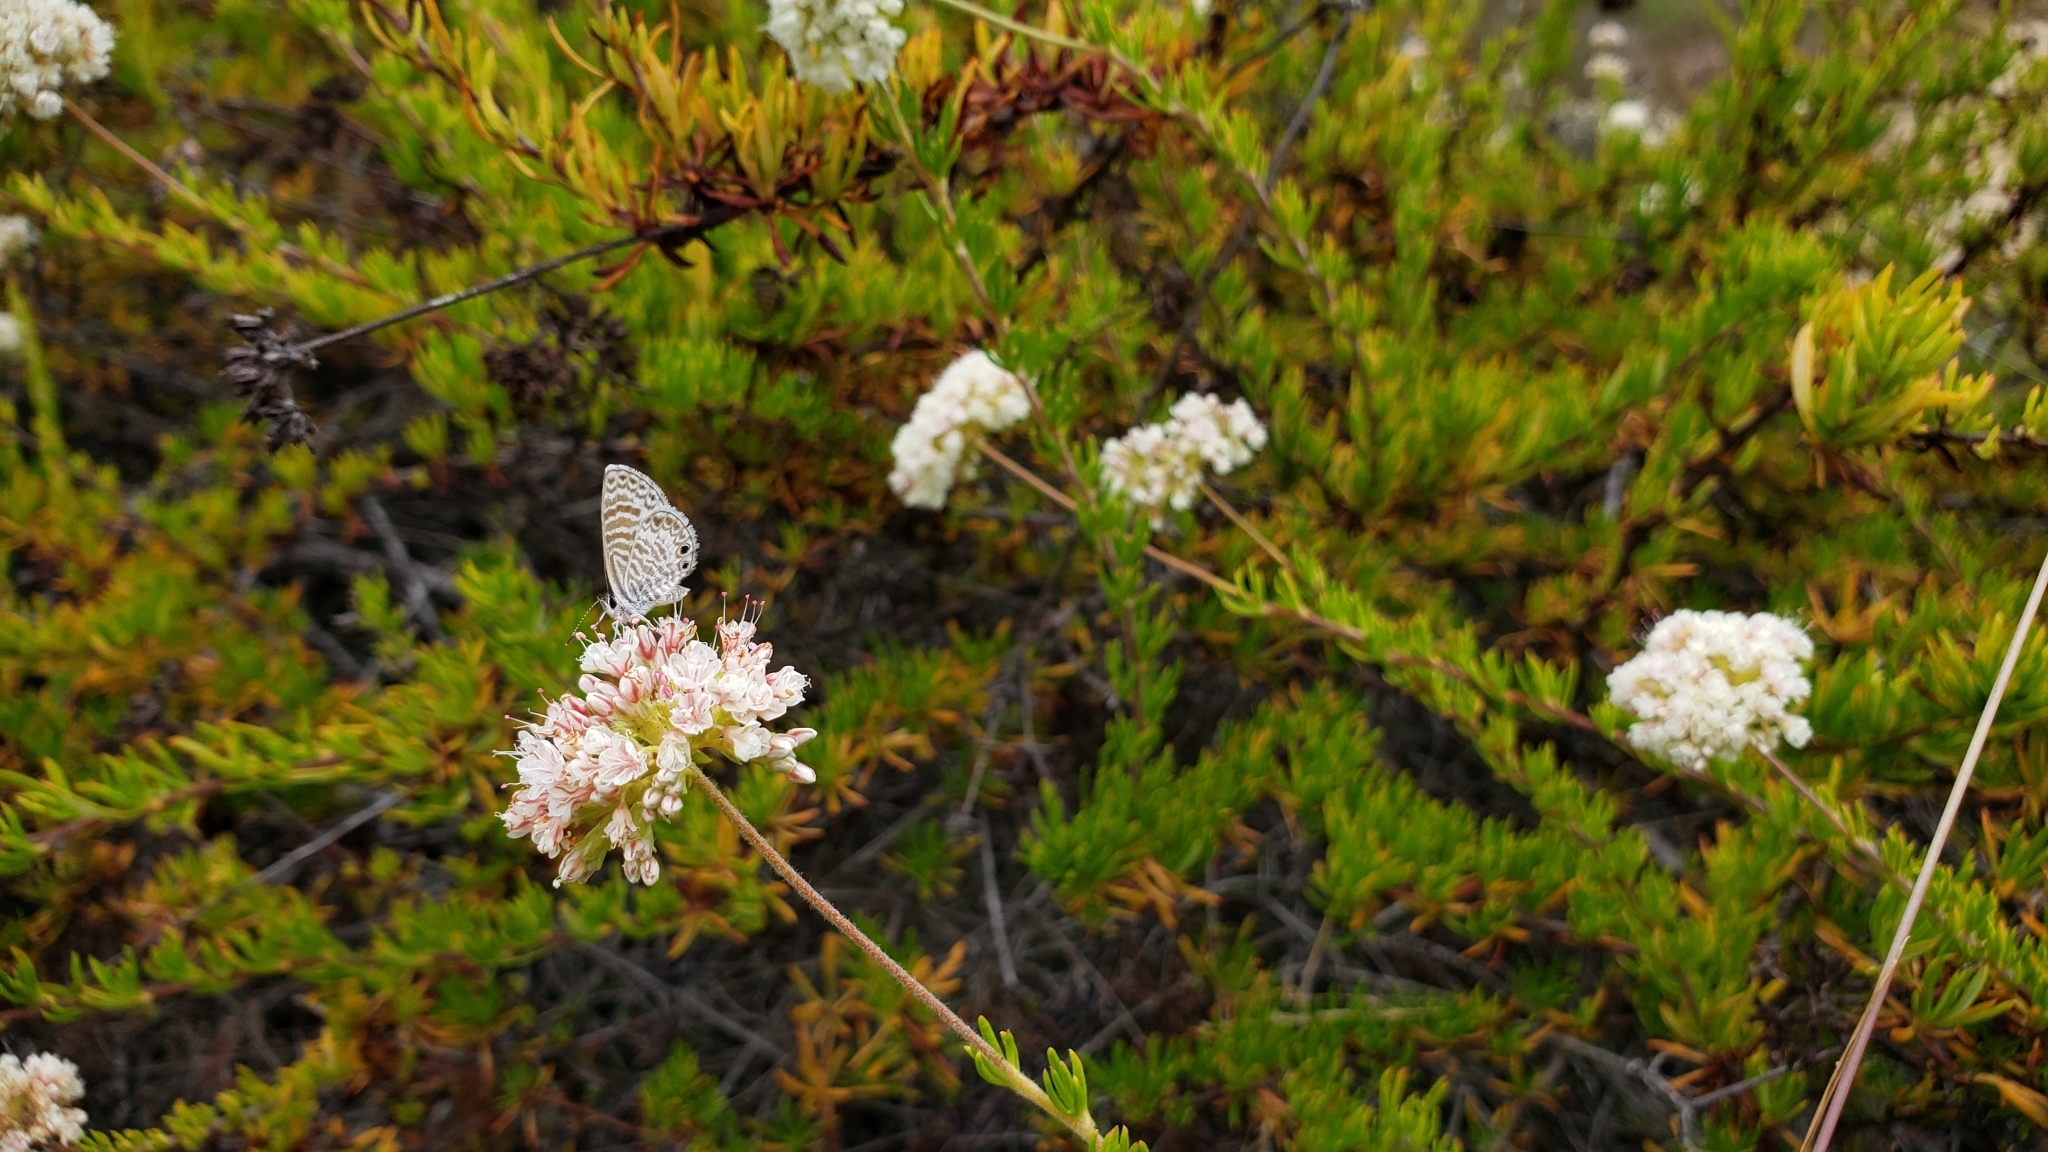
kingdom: Animalia
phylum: Arthropoda
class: Insecta
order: Lepidoptera
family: Lycaenidae
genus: Leptotes
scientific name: Leptotes marina
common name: Marine blue
